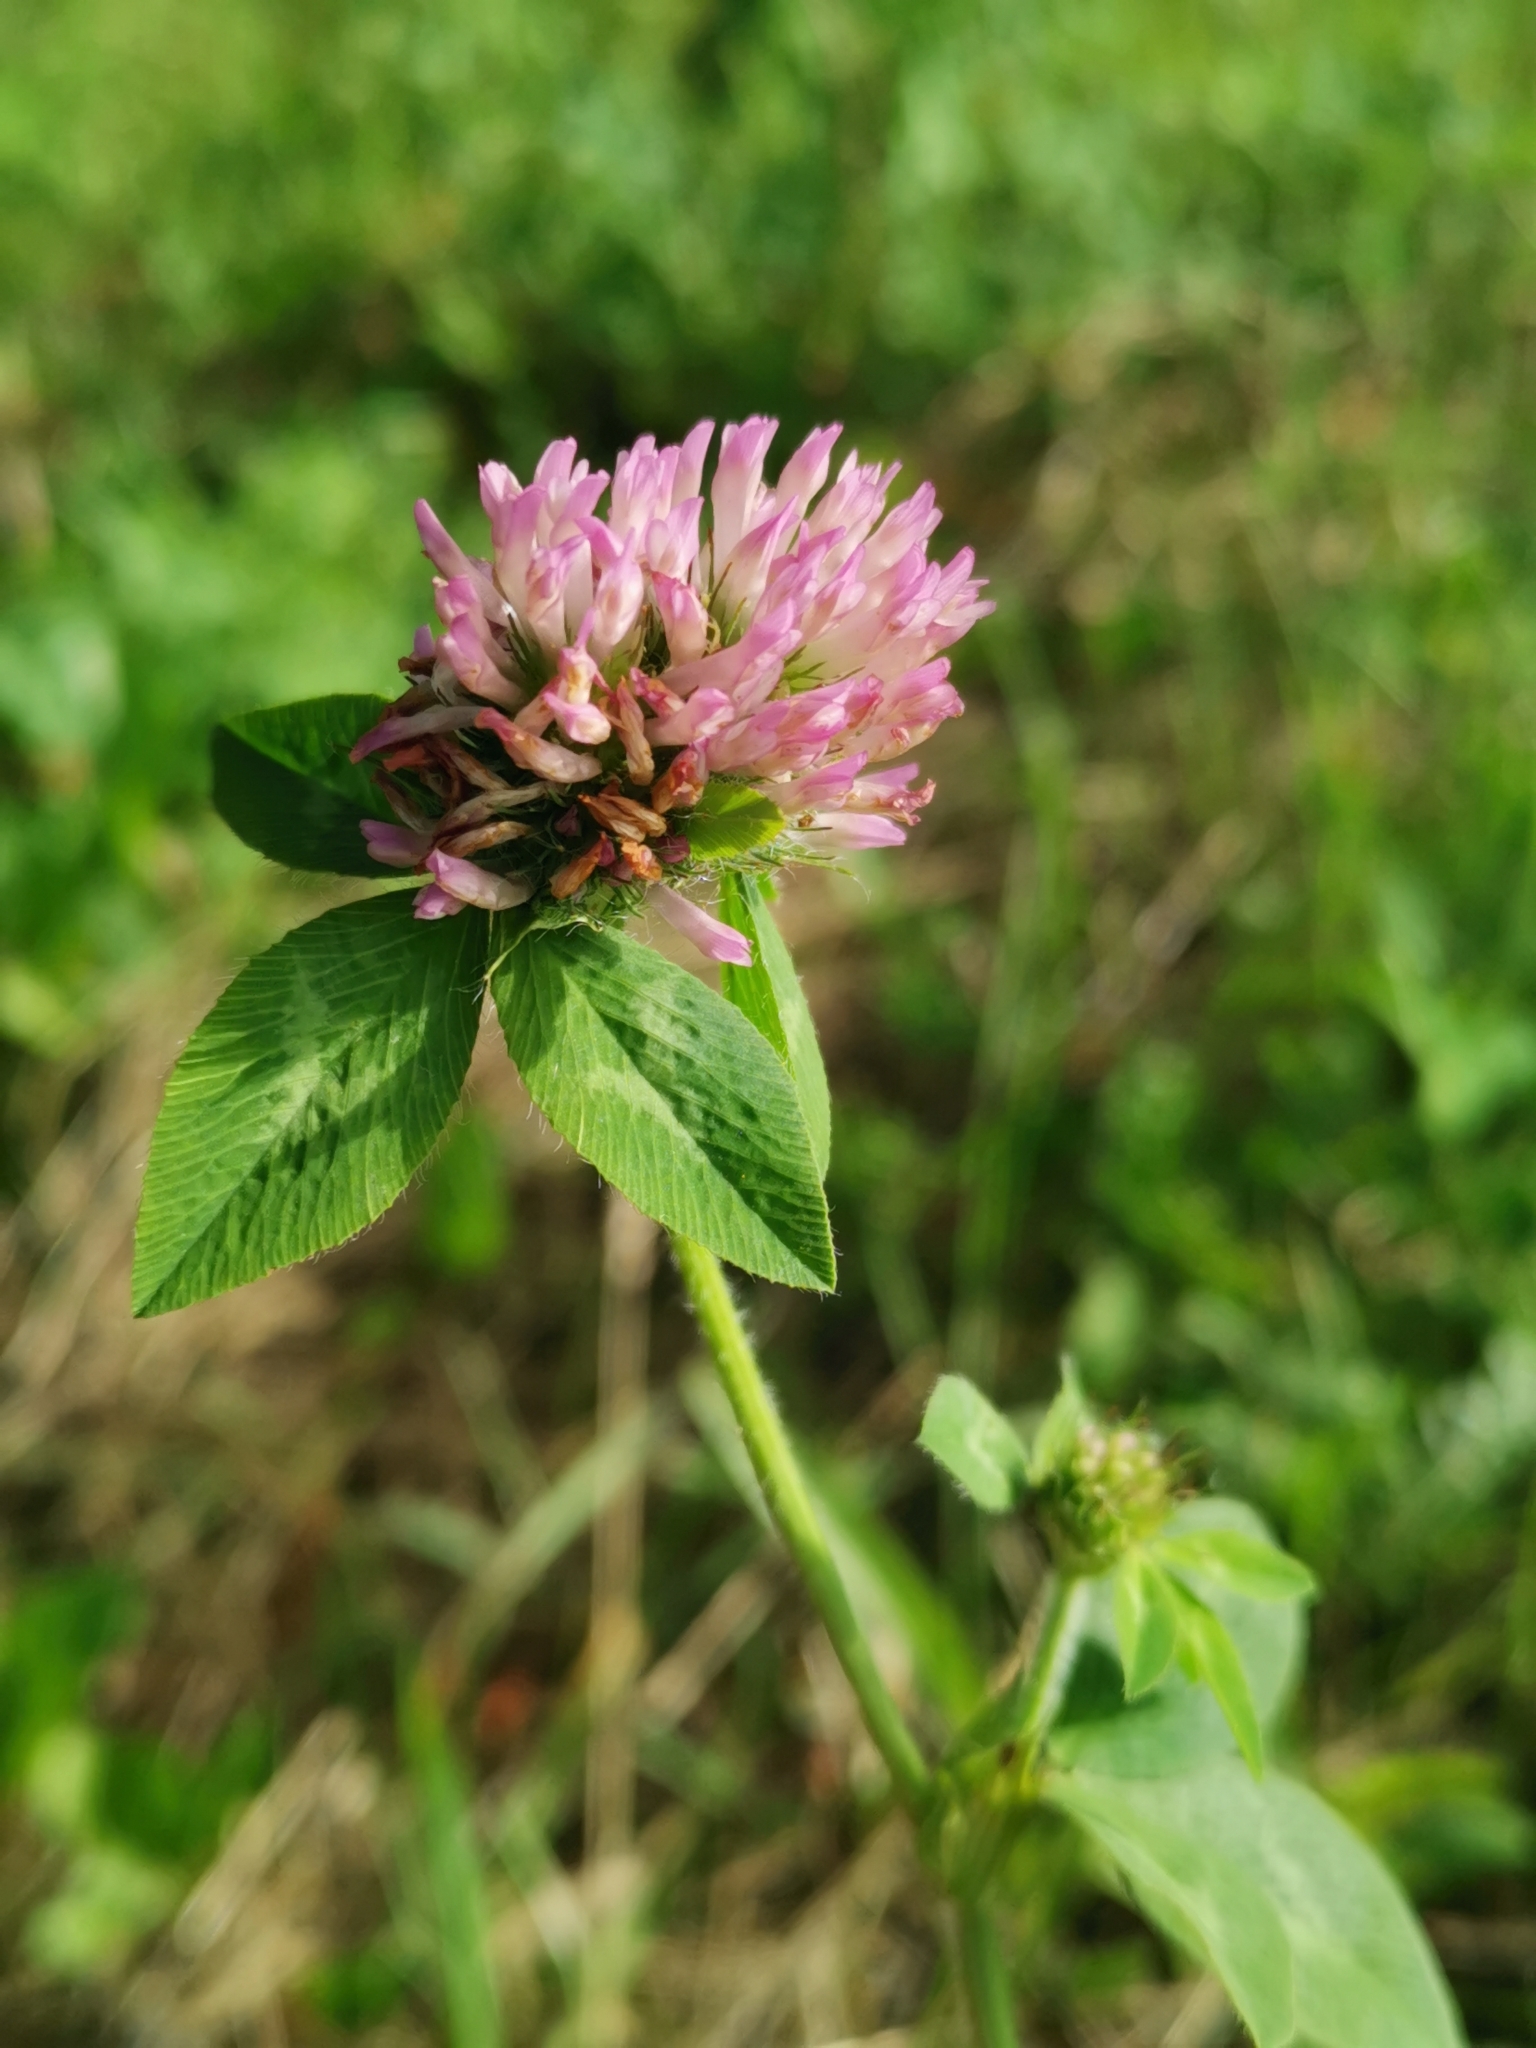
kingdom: Plantae
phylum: Tracheophyta
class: Magnoliopsida
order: Fabales
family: Fabaceae
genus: Trifolium
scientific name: Trifolium pratense
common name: Red clover
